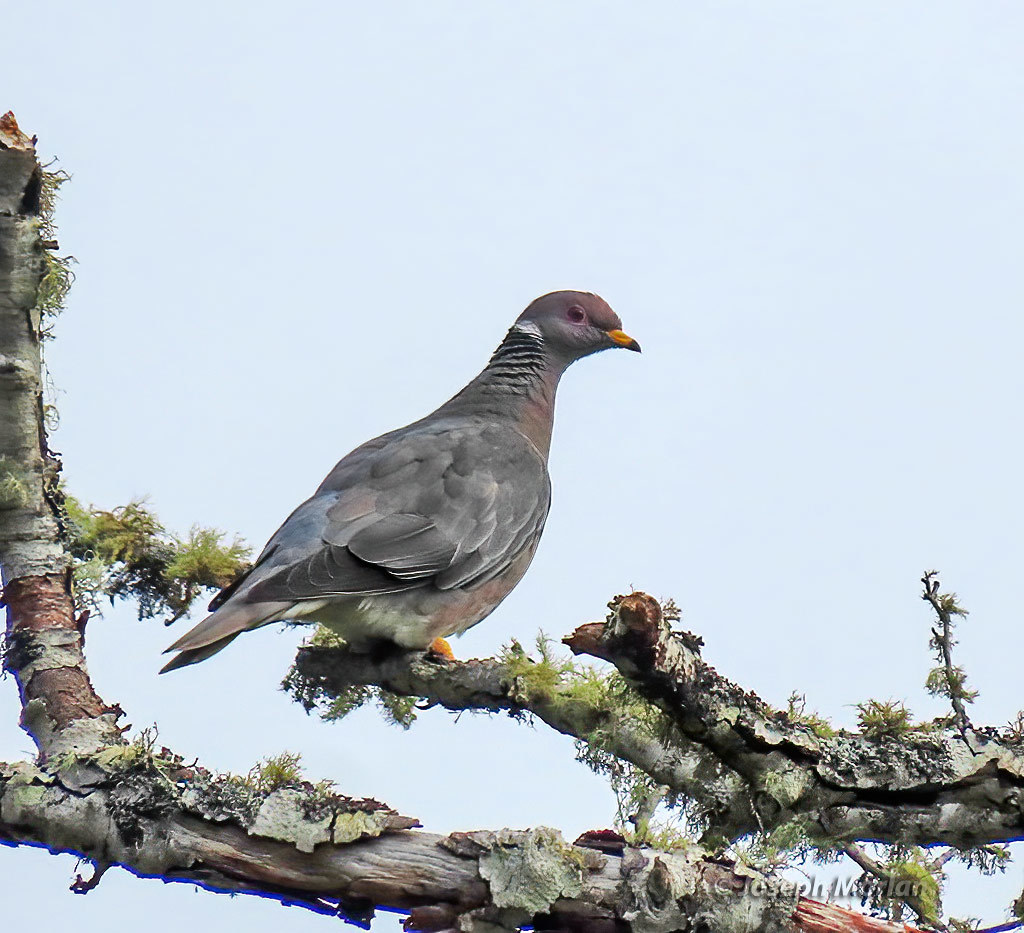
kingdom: Animalia
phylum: Chordata
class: Aves
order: Columbiformes
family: Columbidae
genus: Patagioenas
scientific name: Patagioenas fasciata
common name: Band-tailed pigeon
